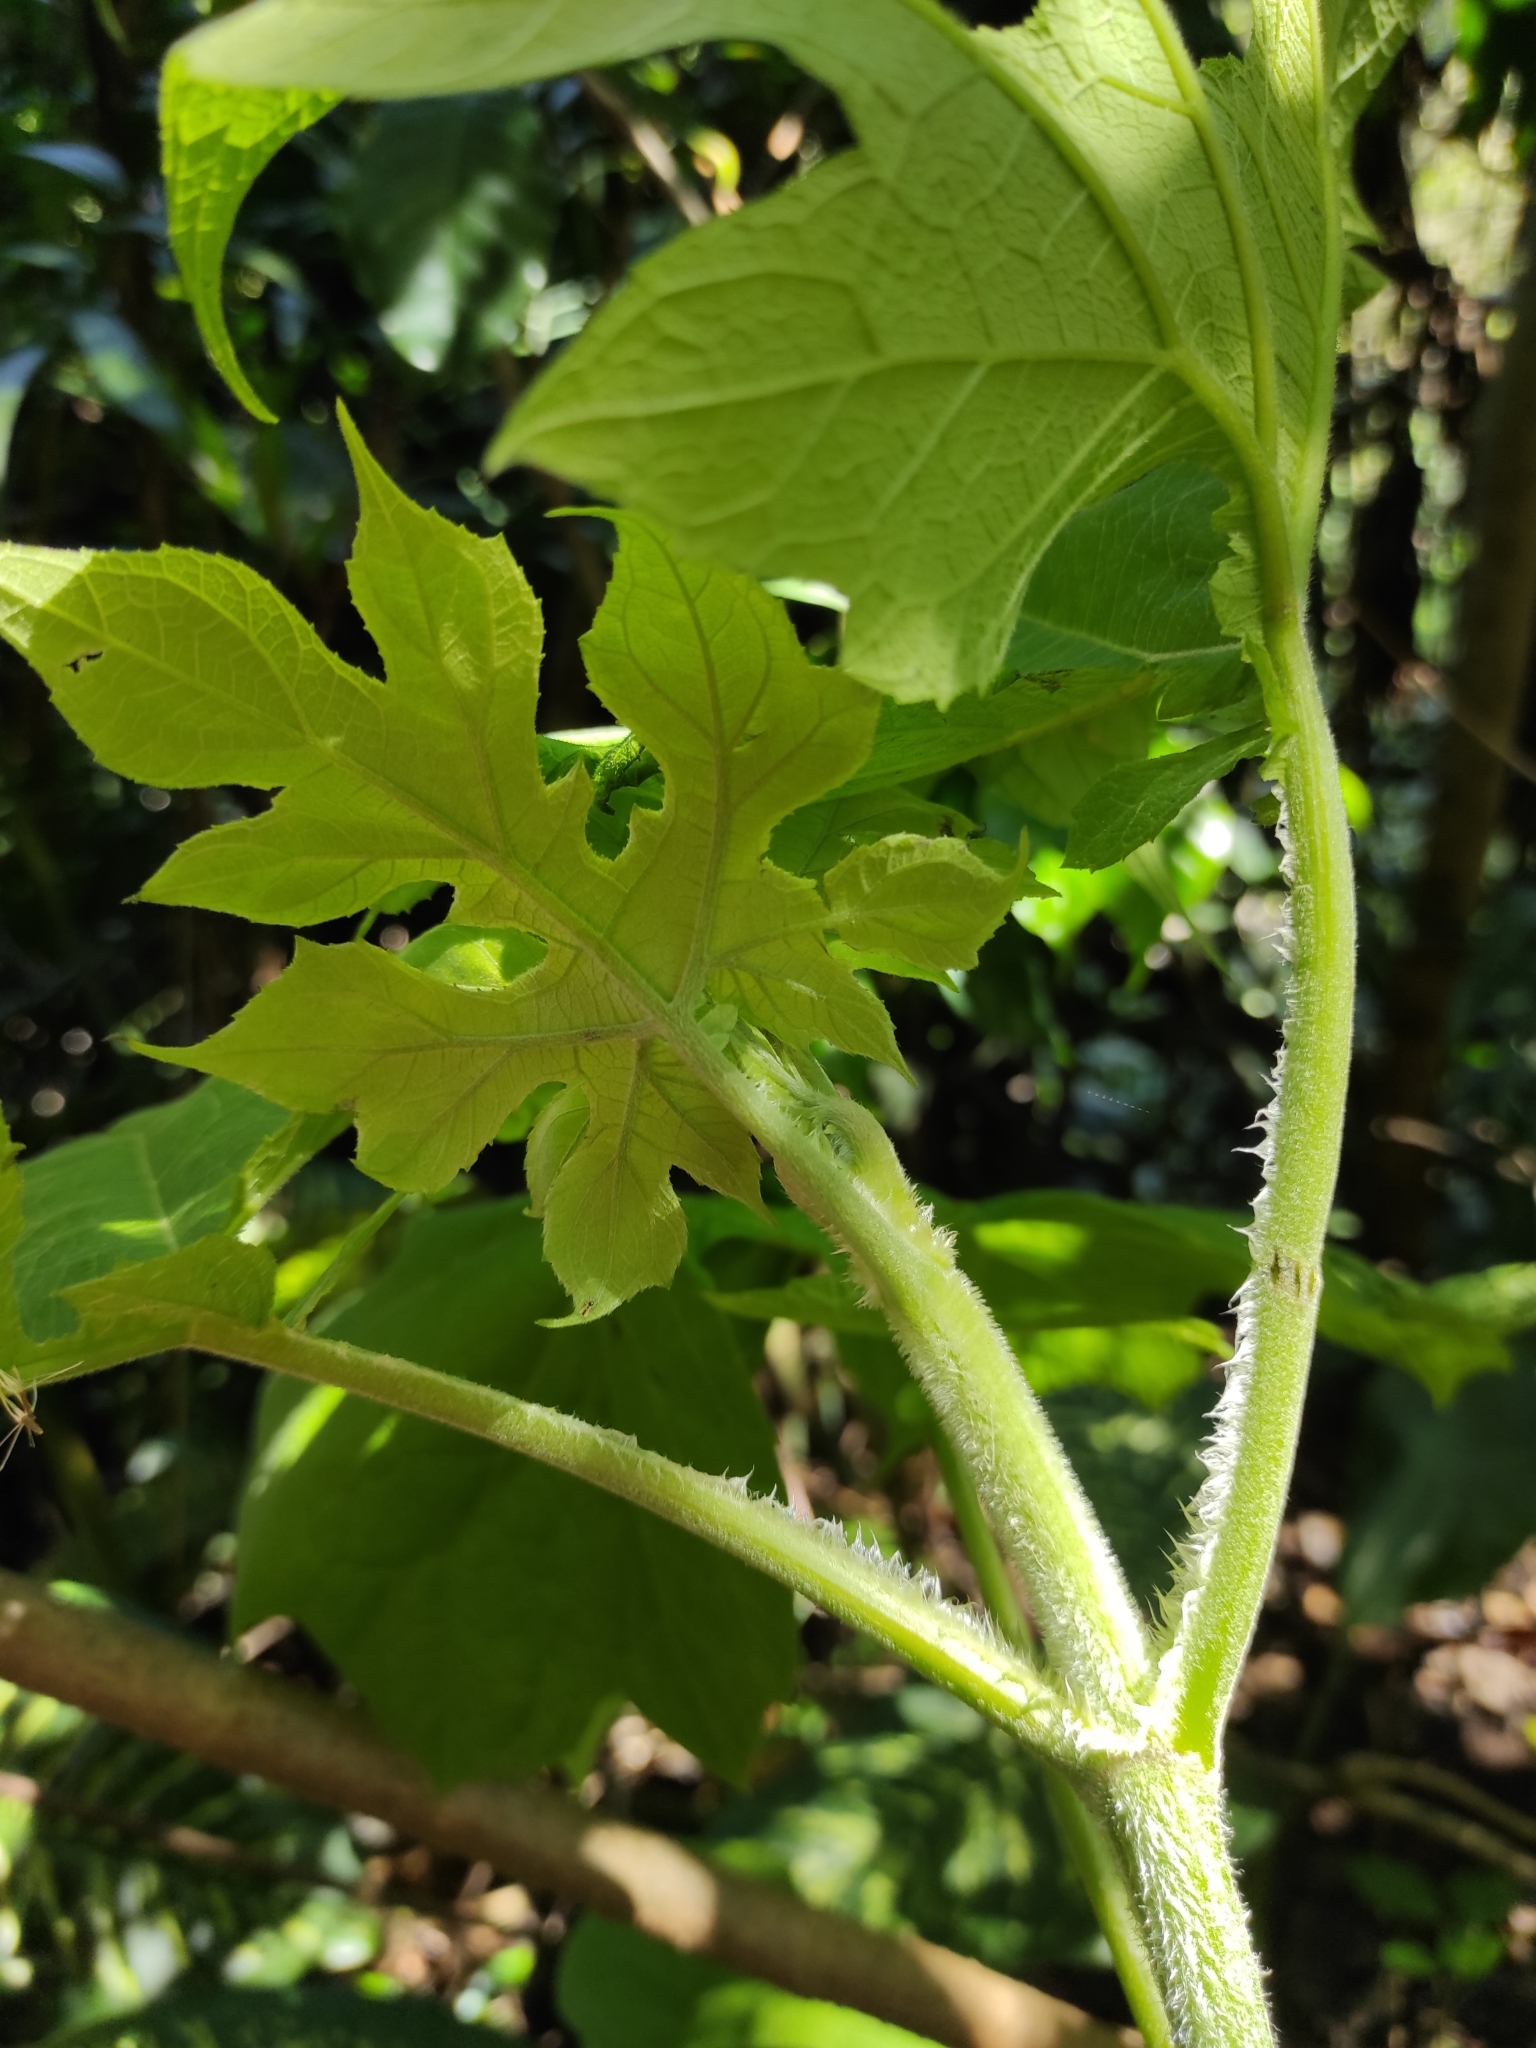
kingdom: Plantae
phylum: Tracheophyta
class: Magnoliopsida
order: Asterales
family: Asteraceae
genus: Montanoa
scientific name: Montanoa hibiscifolia
